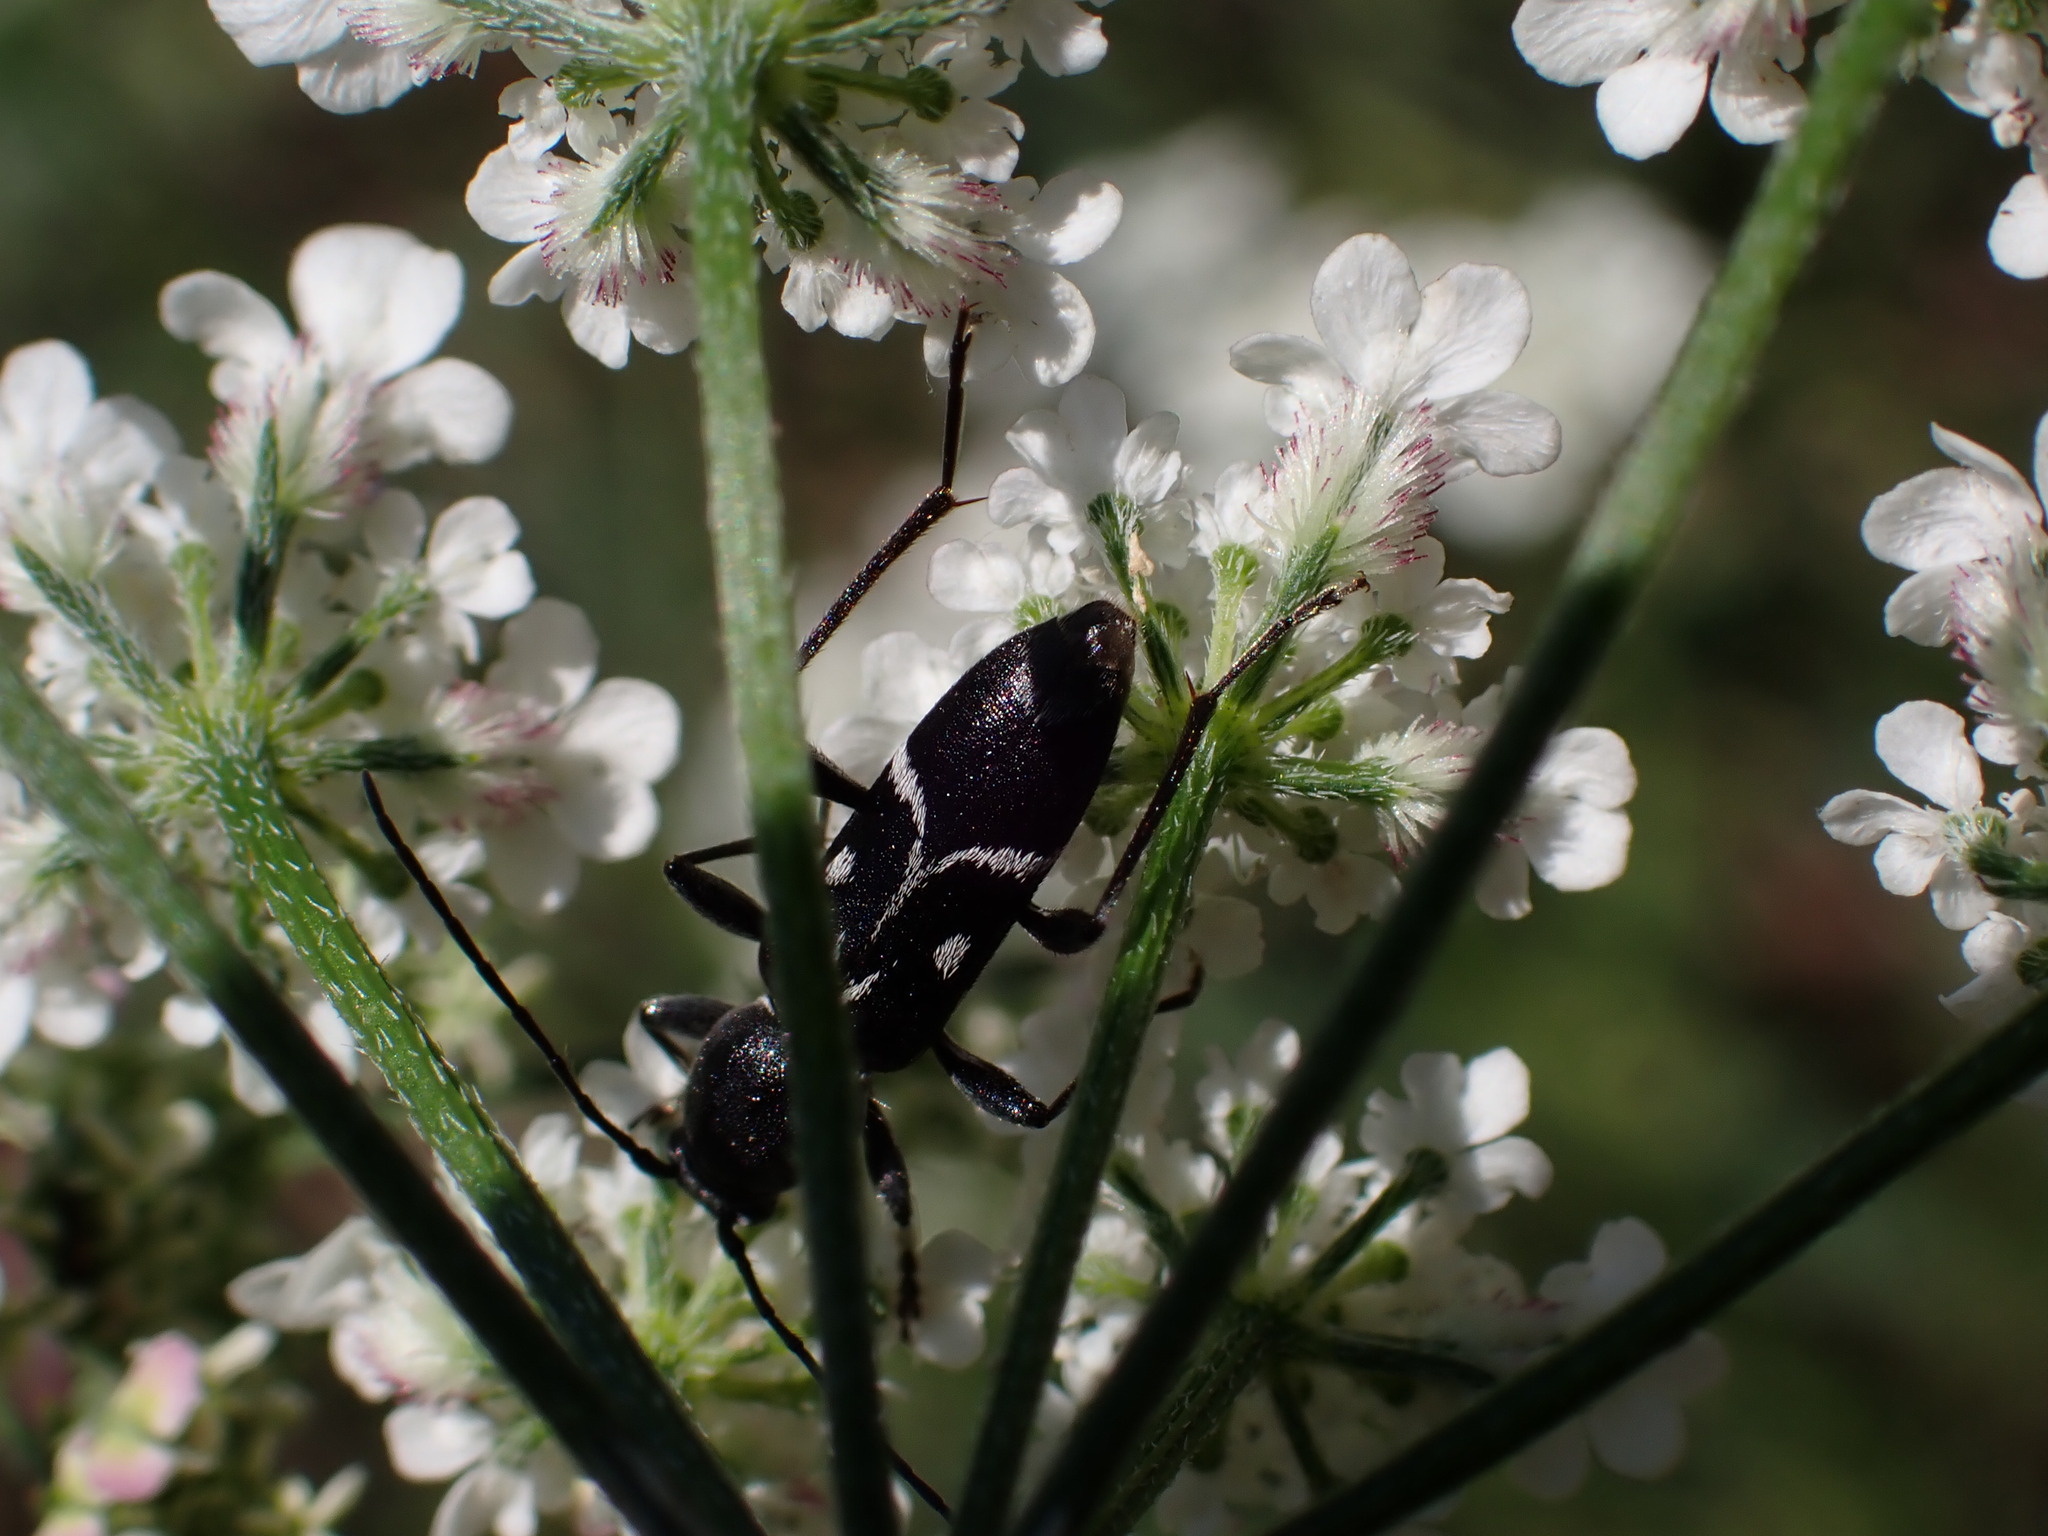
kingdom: Animalia
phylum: Arthropoda
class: Insecta
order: Coleoptera
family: Cerambycidae
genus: Chlorophorus
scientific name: Chlorophorus sartor
